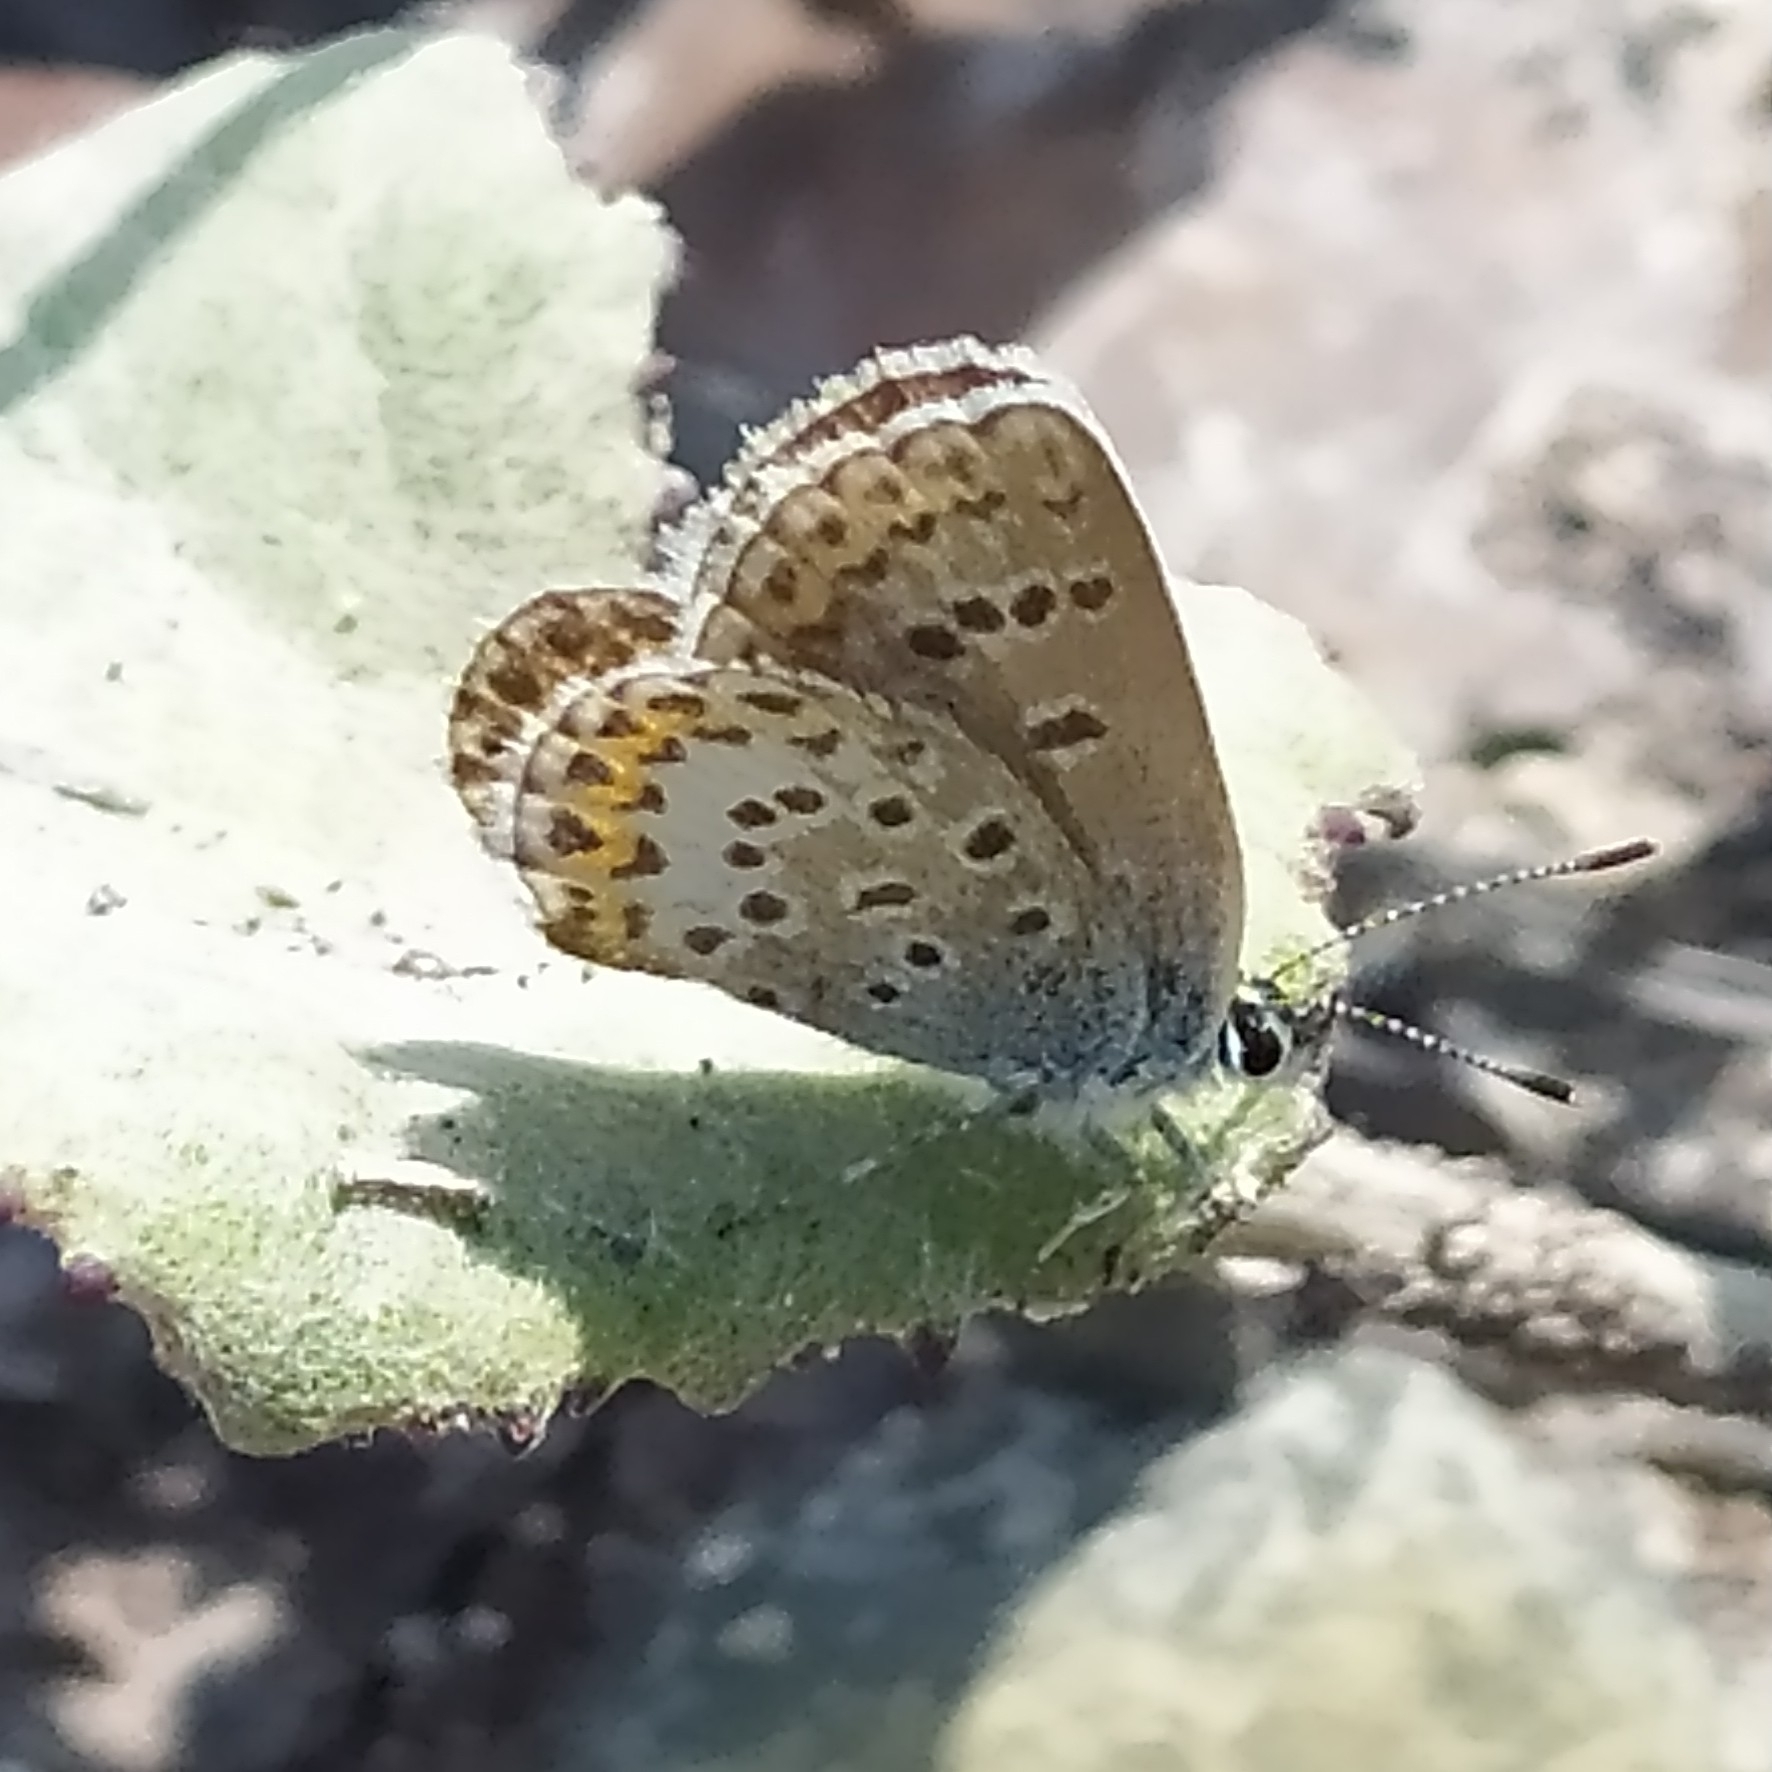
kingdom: Animalia
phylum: Arthropoda
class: Insecta
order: Lepidoptera
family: Lycaenidae
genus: Plebejus
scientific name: Plebejus argus
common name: Silver-studded blue
